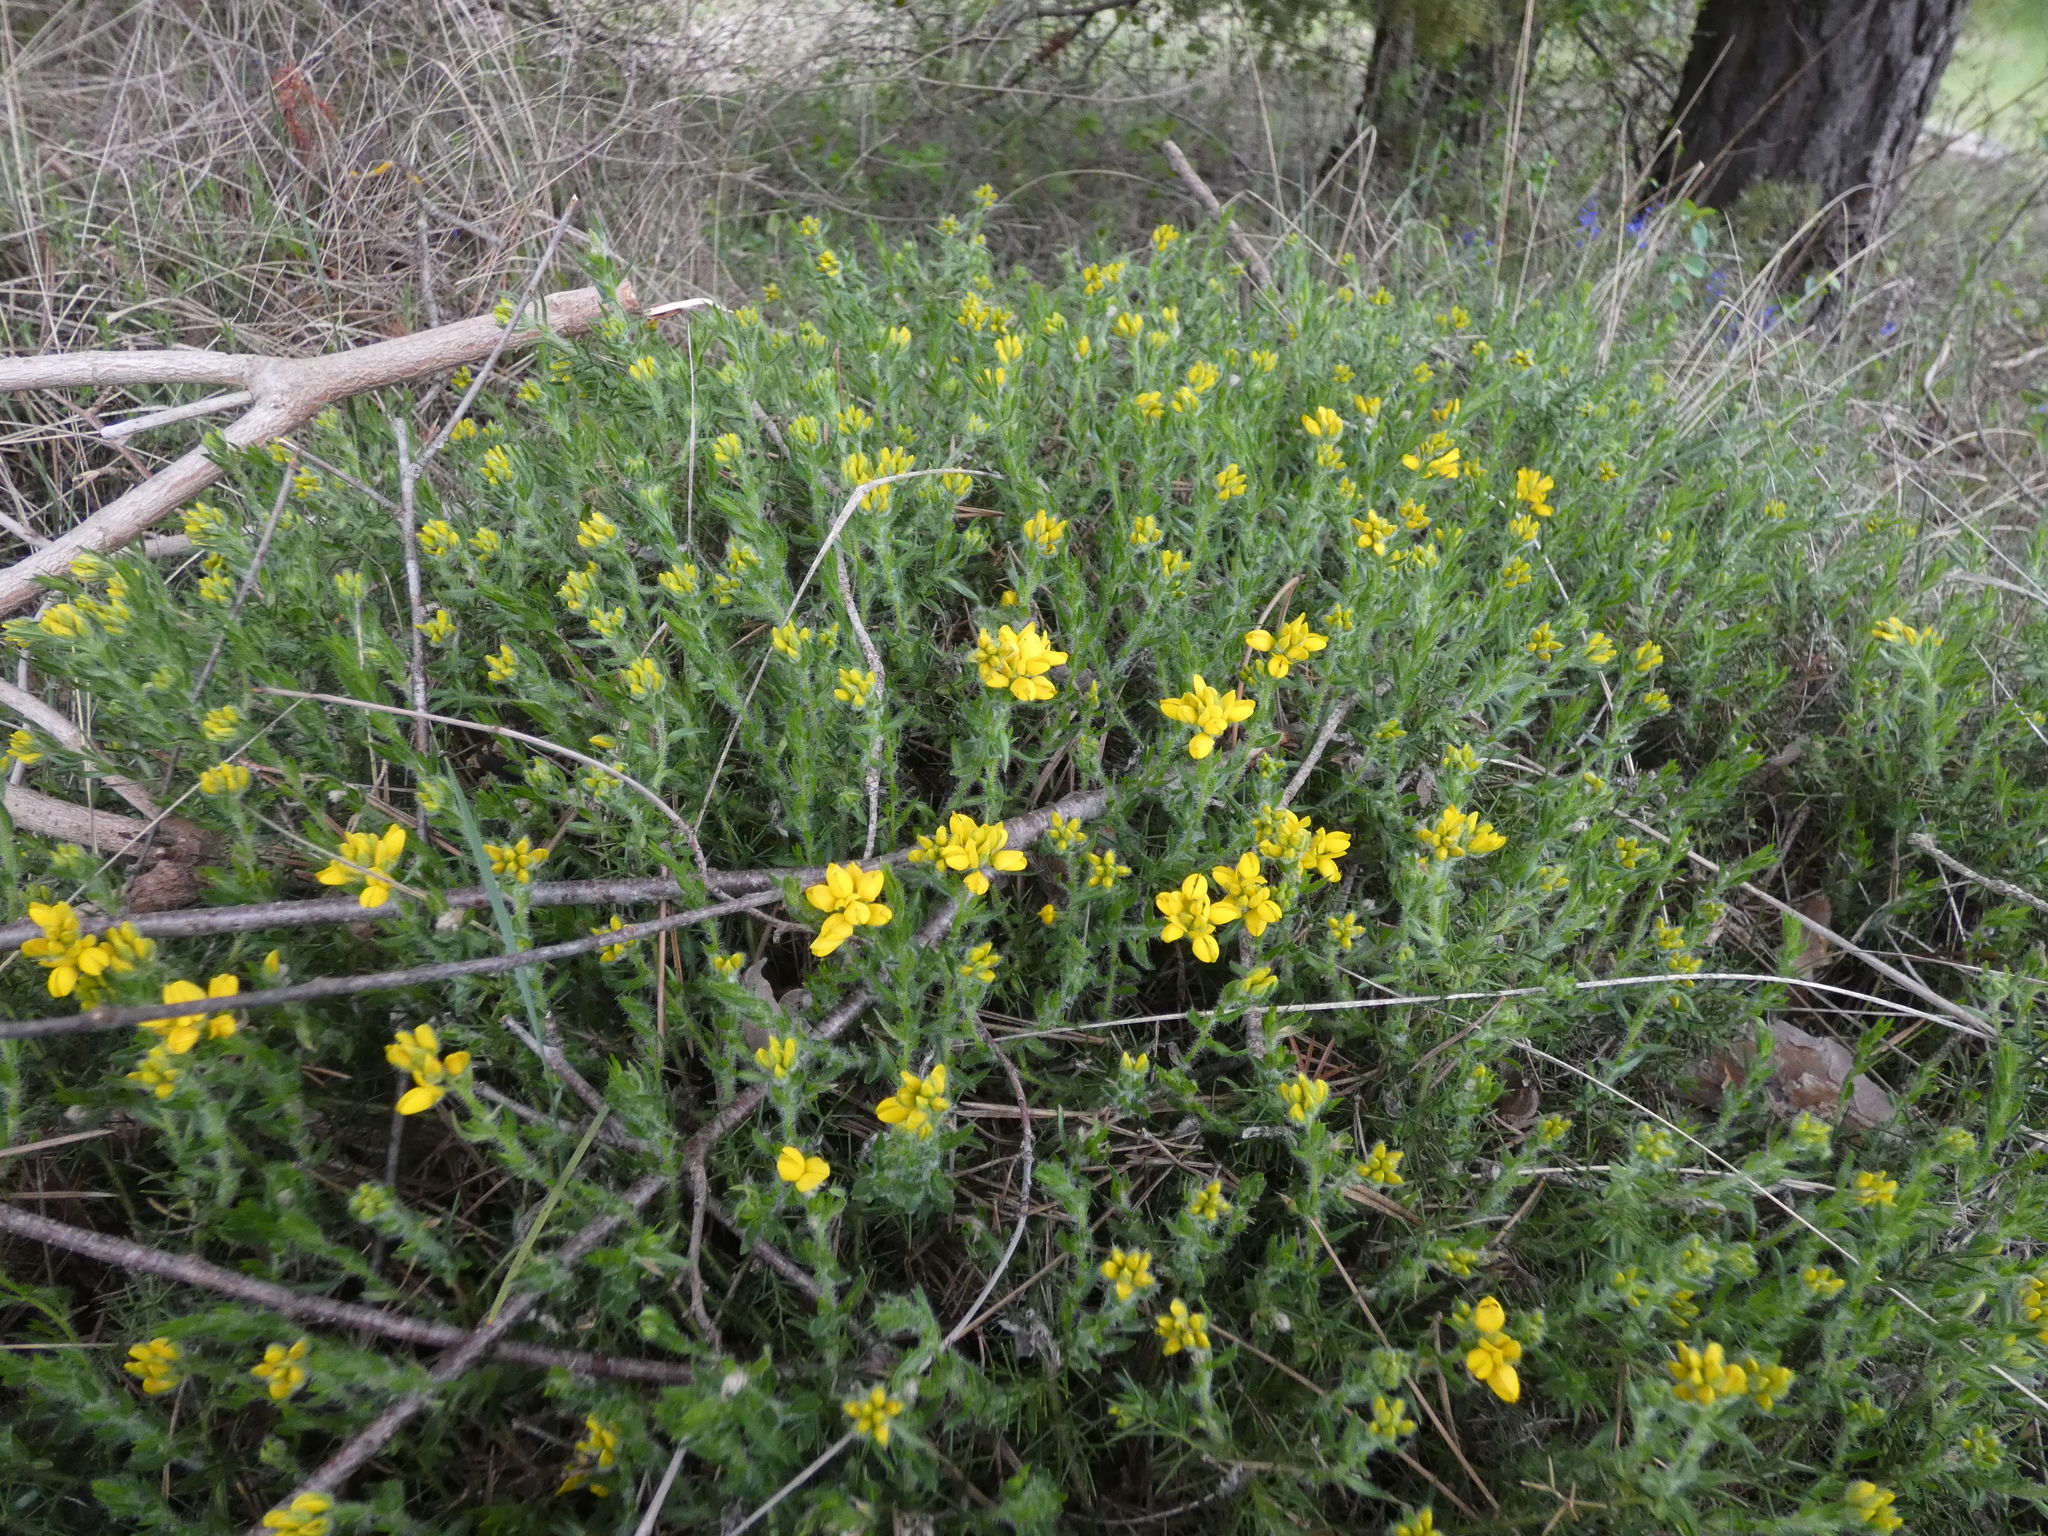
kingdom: Plantae
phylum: Tracheophyta
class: Magnoliopsida
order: Fabales
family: Fabaceae
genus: Genista
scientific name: Genista hispanica
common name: Spanish gorse
